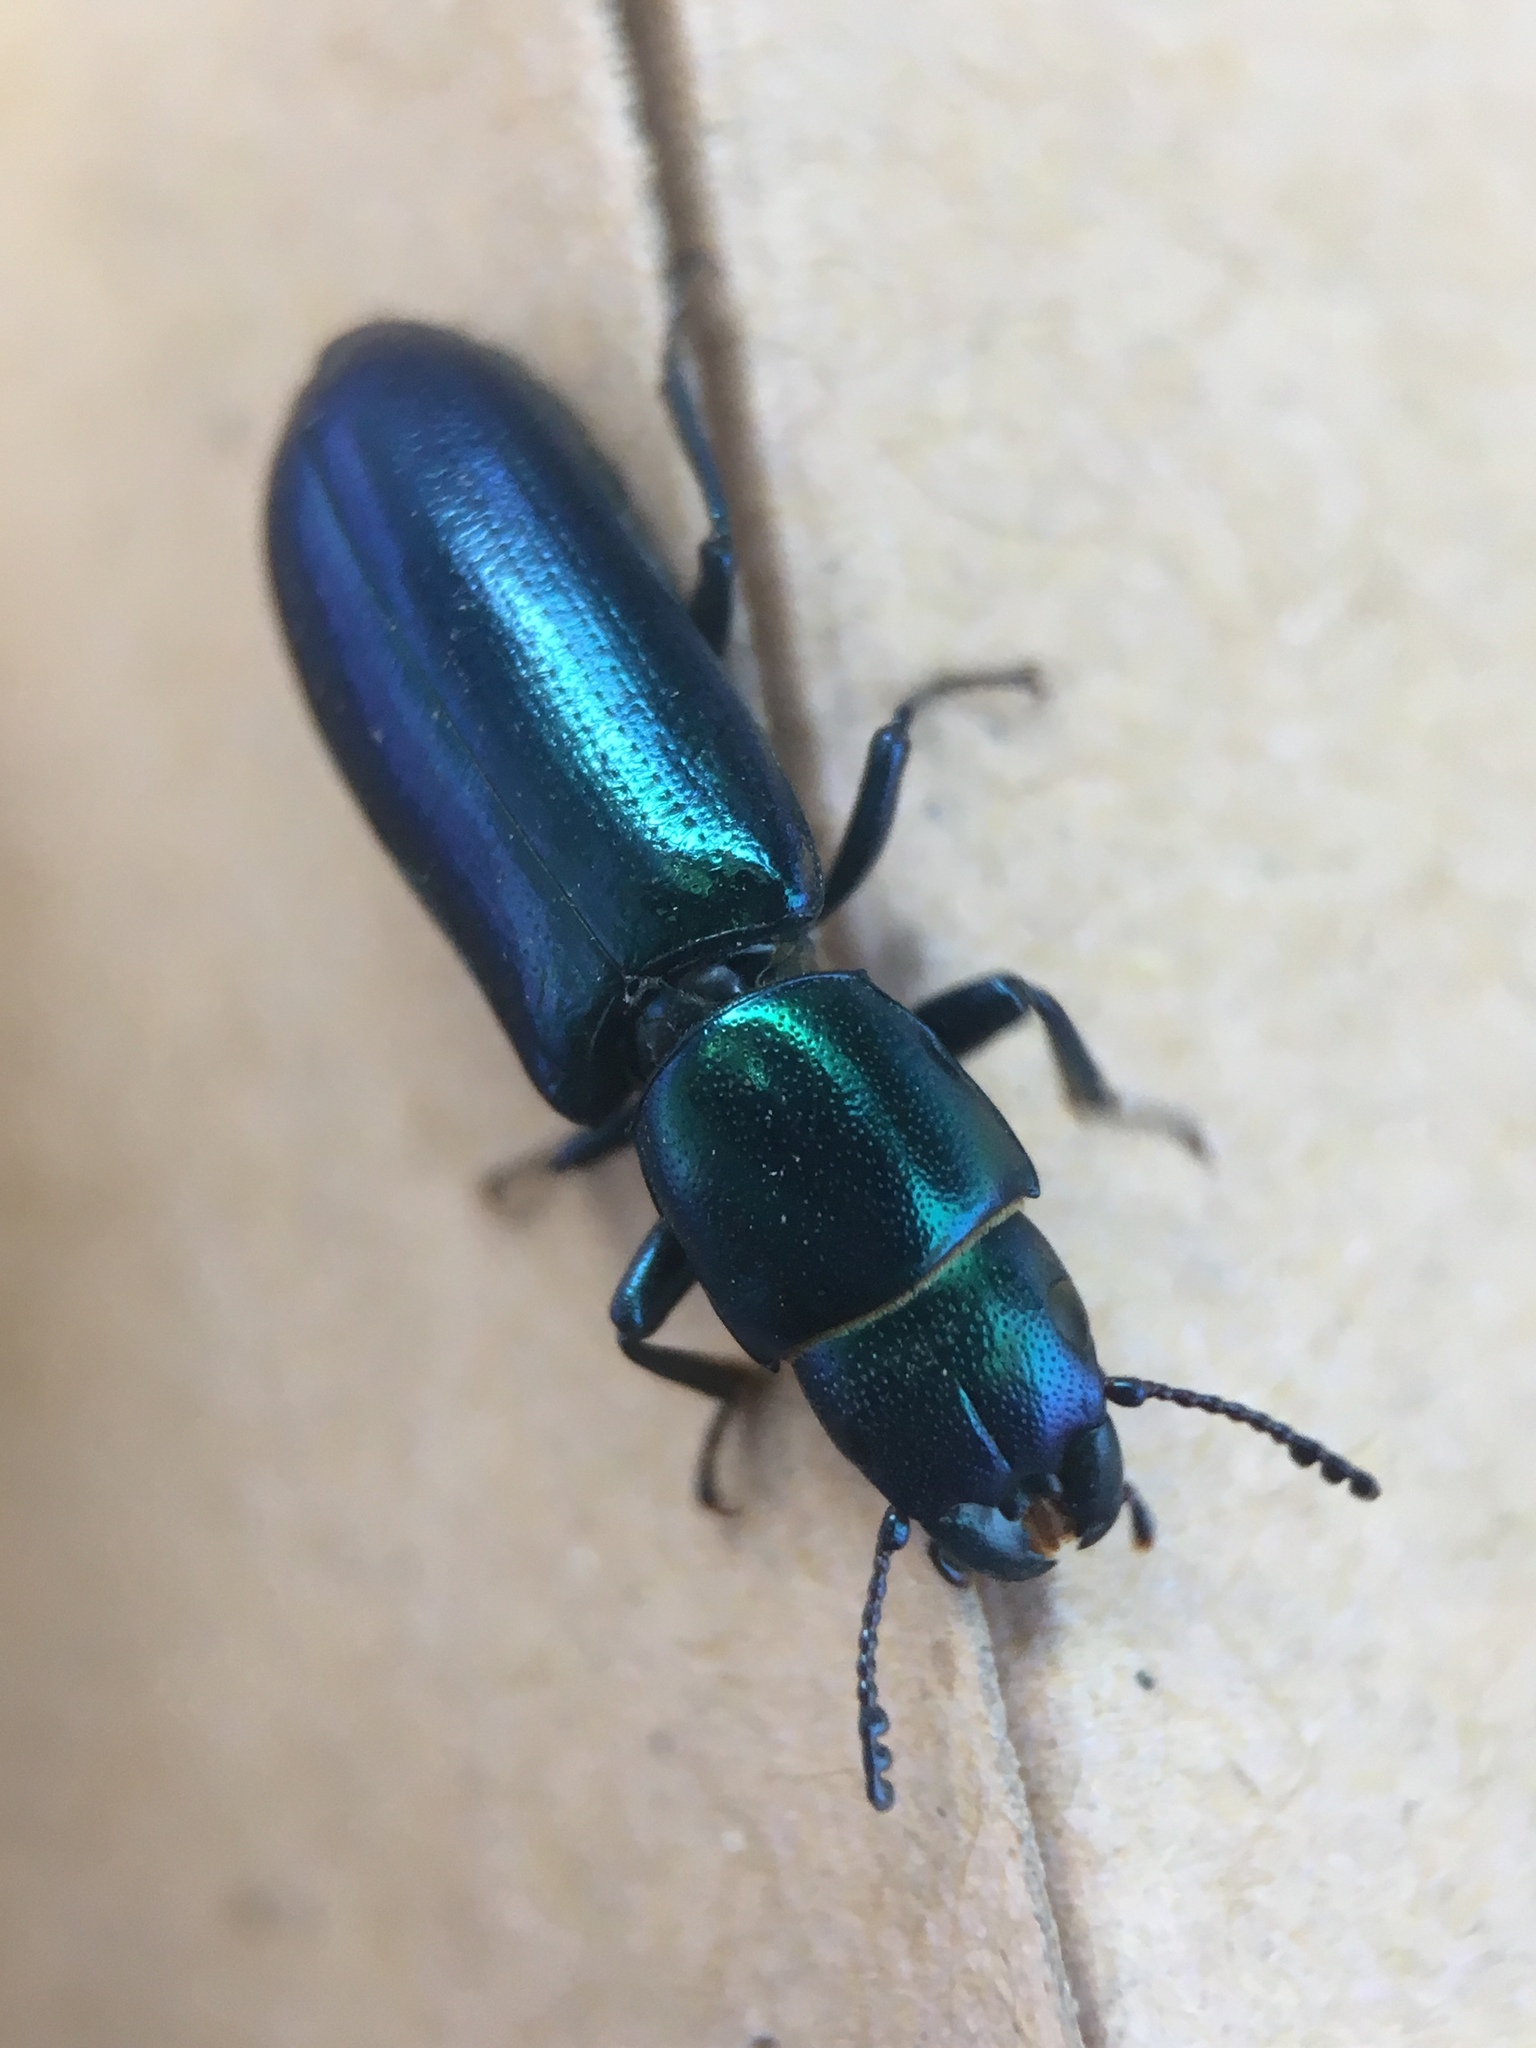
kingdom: Animalia
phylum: Arthropoda
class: Insecta
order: Coleoptera
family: Trogossitidae
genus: Temnoscheila
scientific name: Temnoscheila chlorodia
